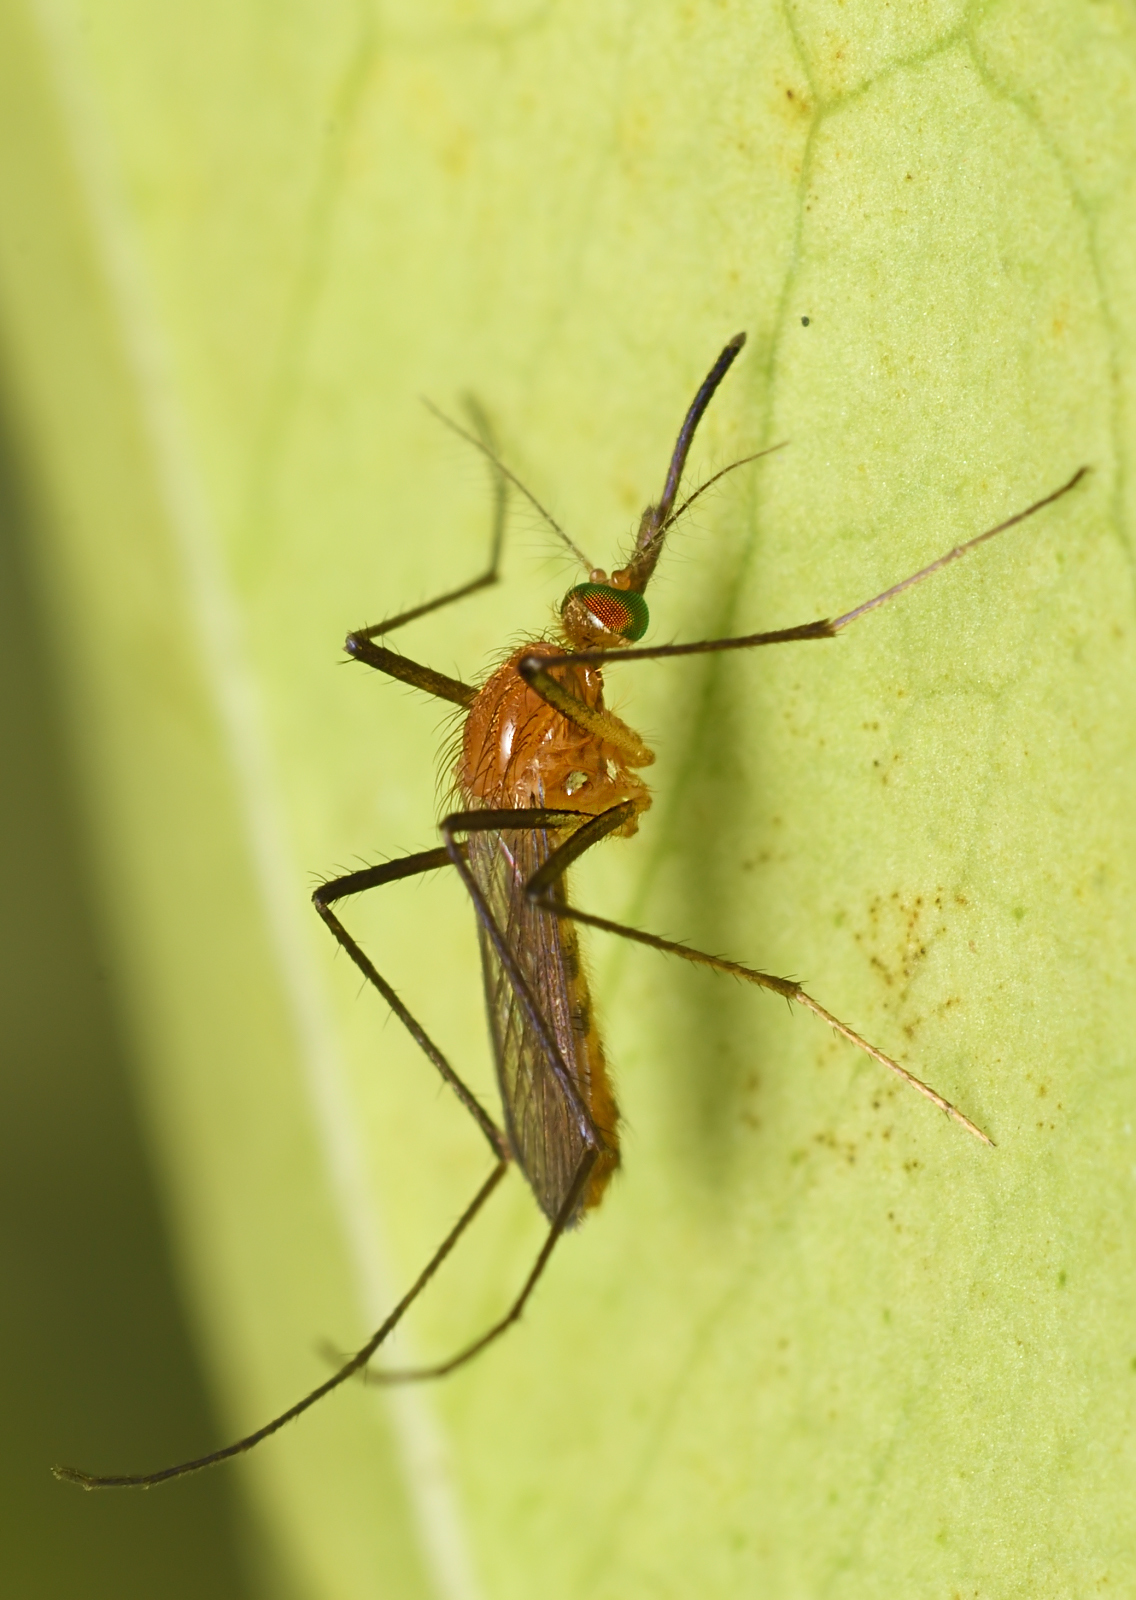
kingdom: Animalia
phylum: Arthropoda
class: Insecta
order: Diptera
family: Culicidae
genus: Coquillettidia
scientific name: Coquillettidia crassipes
